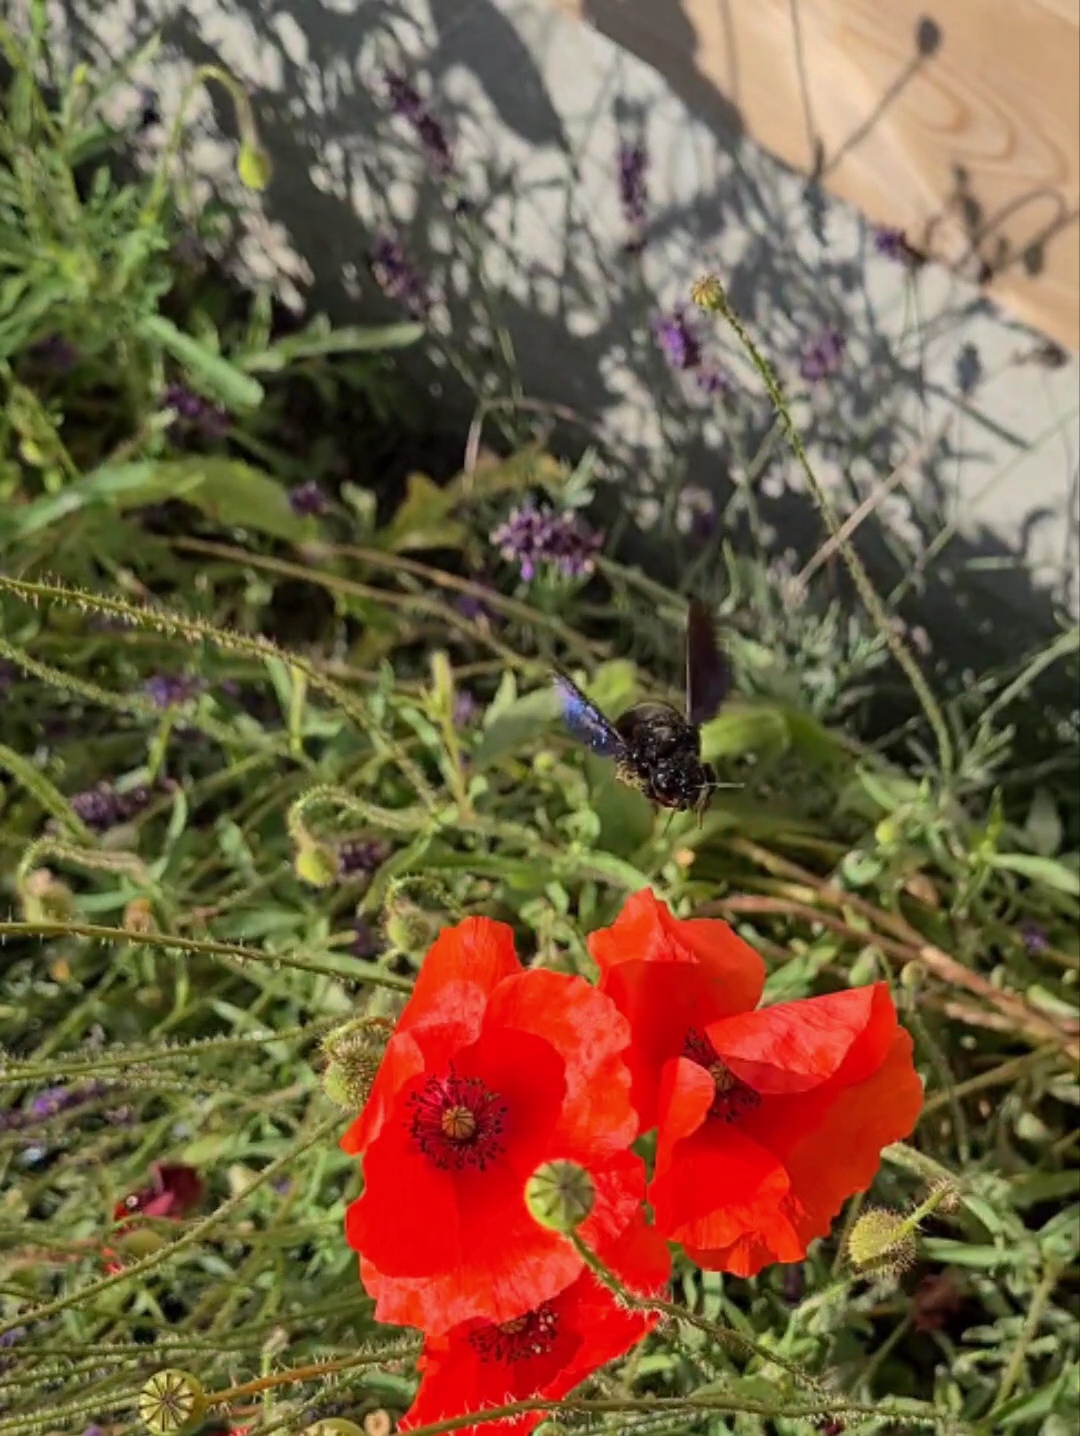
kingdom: Animalia
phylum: Arthropoda
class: Insecta
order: Hymenoptera
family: Apidae
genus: Xylocopa
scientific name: Xylocopa violacea
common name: Violet carpenter bee
